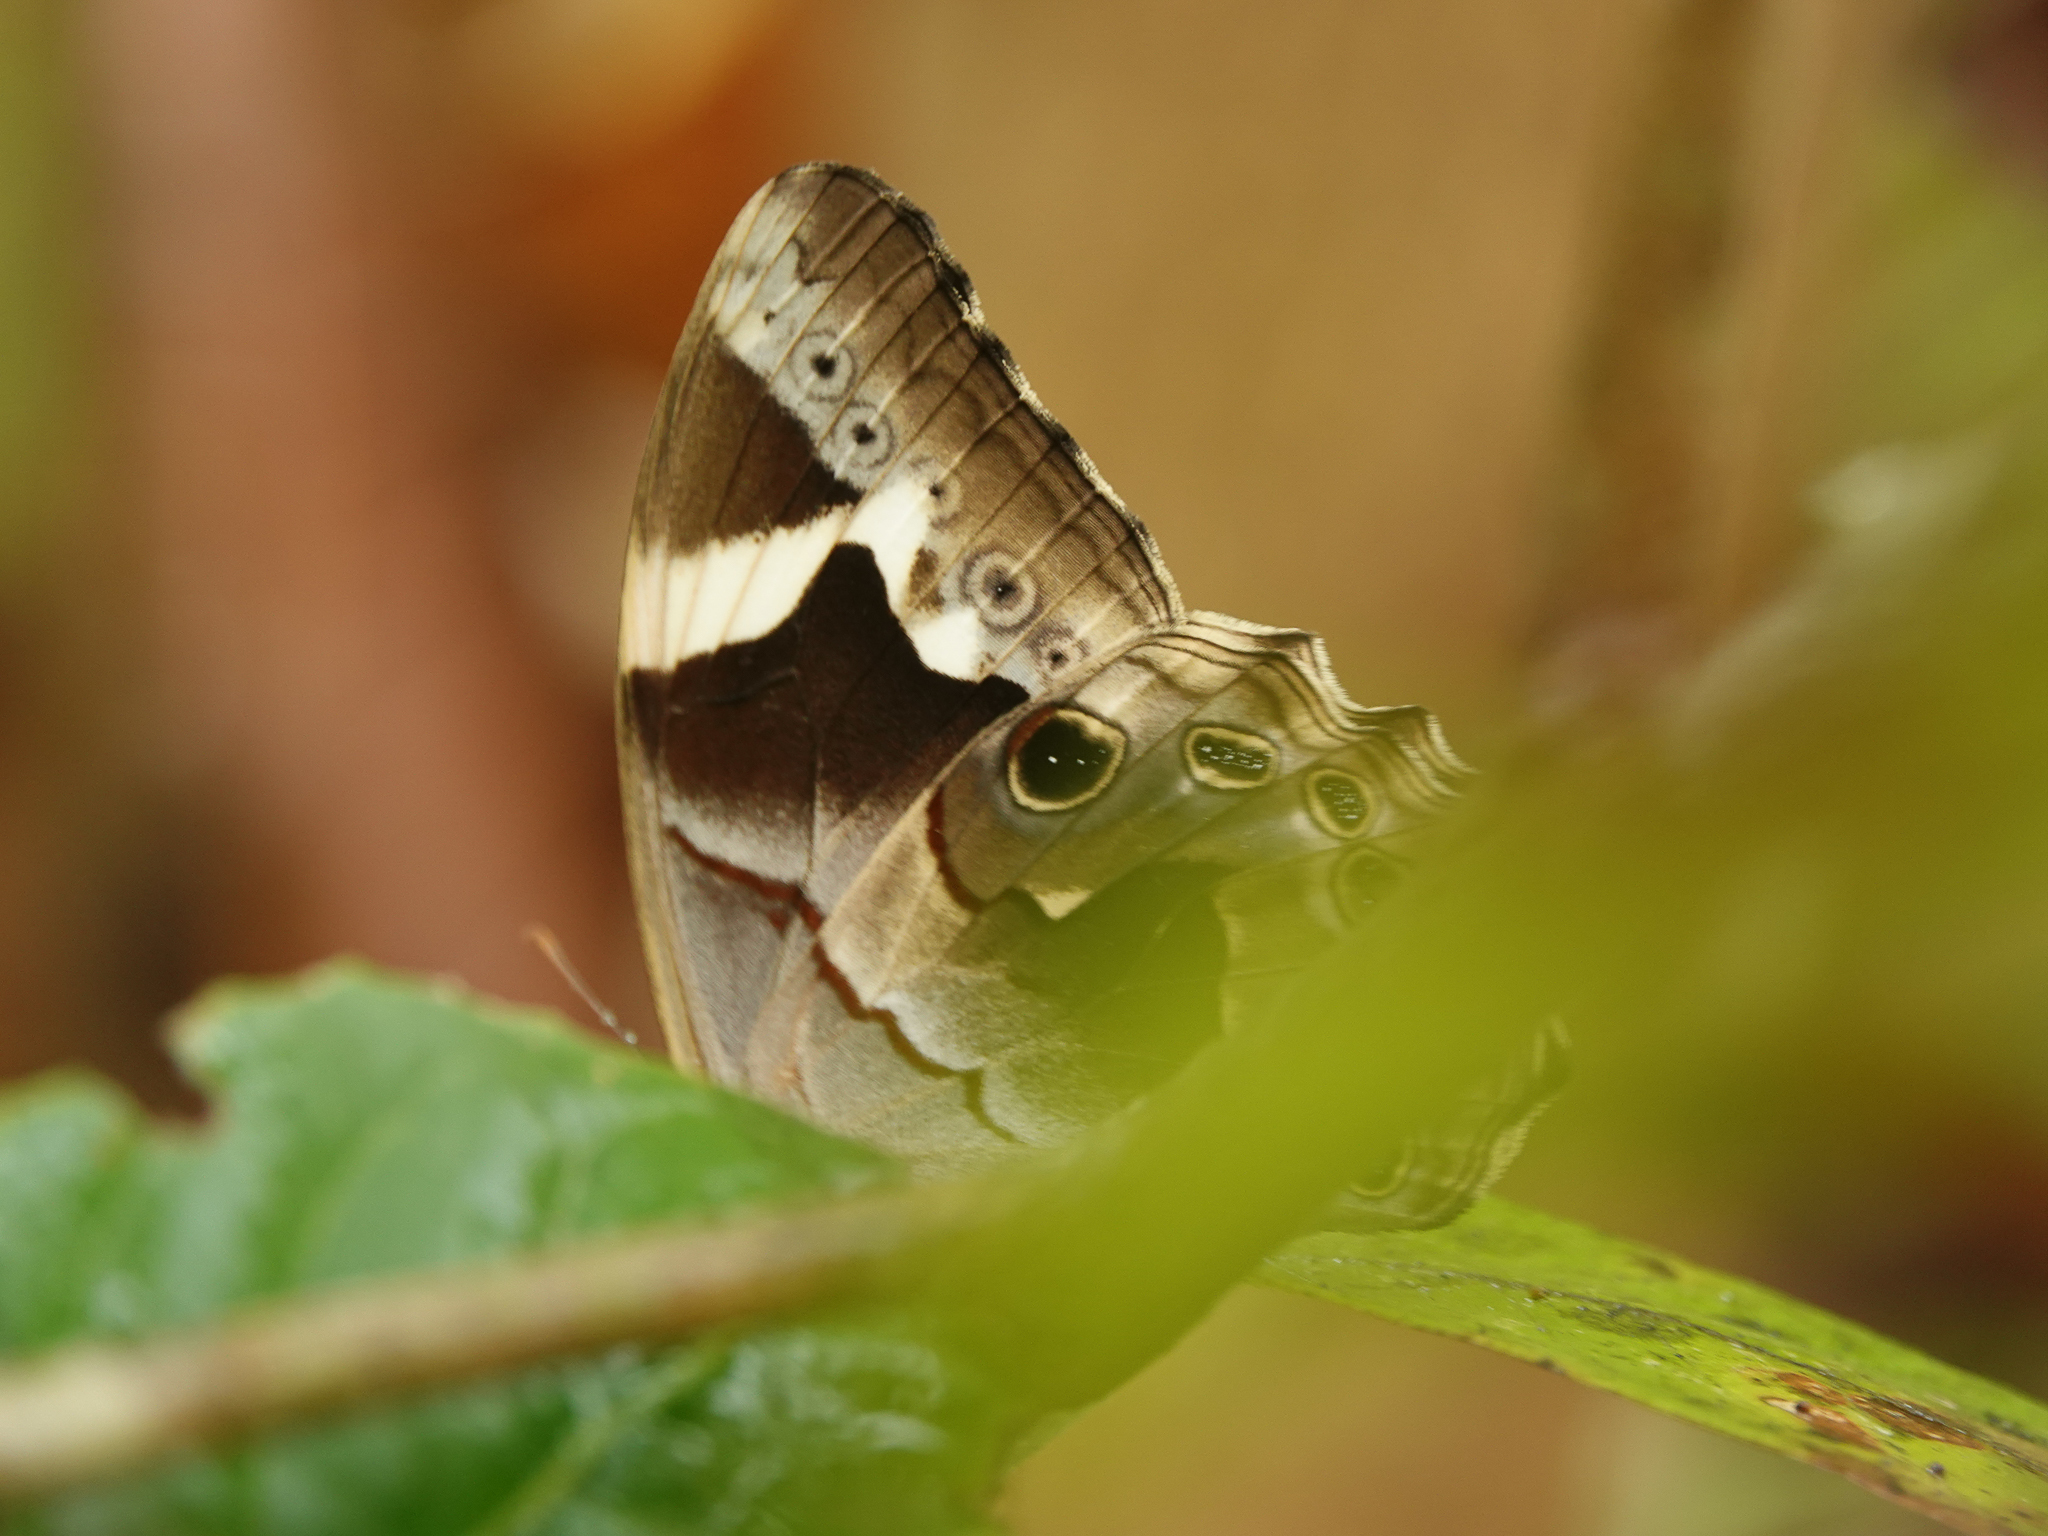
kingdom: Animalia
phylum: Arthropoda
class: Insecta
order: Lepidoptera
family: Nymphalidae
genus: Lethe
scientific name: Lethe chandica
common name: Angled red forester
